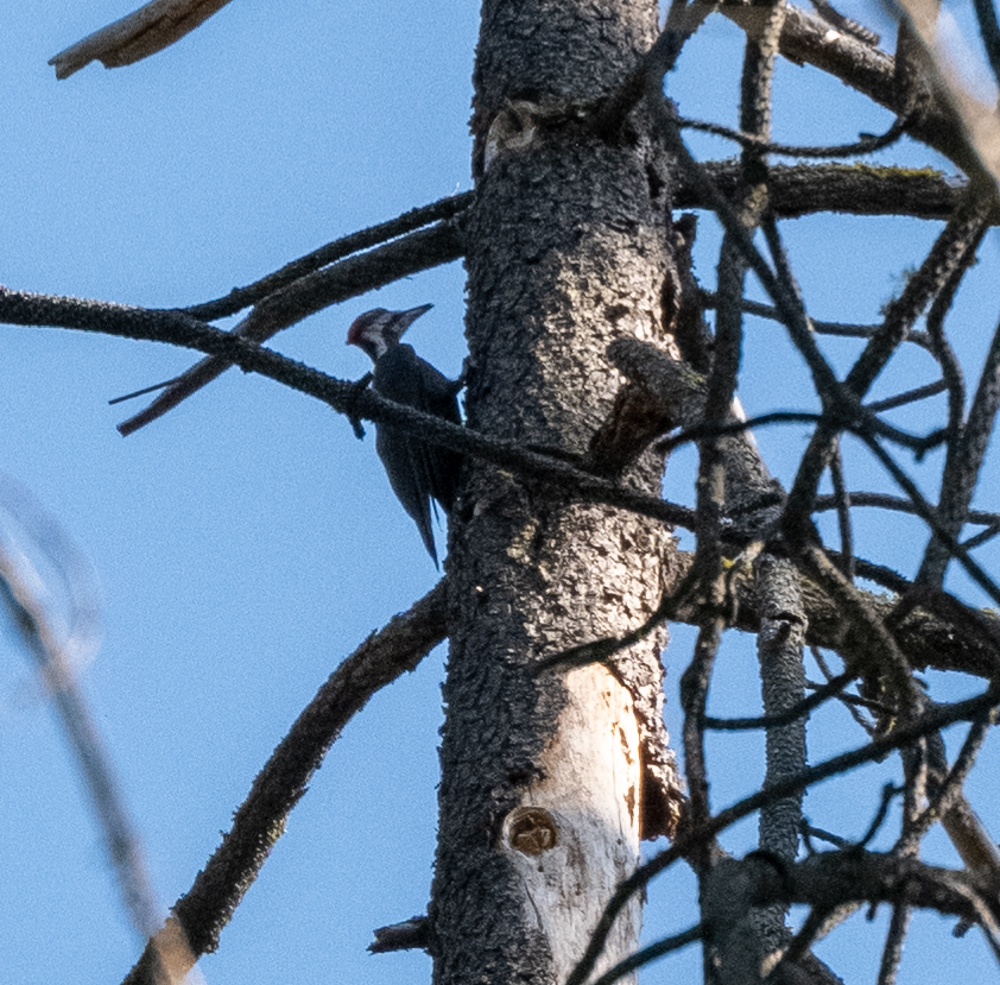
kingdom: Animalia
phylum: Chordata
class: Aves
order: Piciformes
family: Picidae
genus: Dryocopus
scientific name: Dryocopus pileatus
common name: Pileated woodpecker
